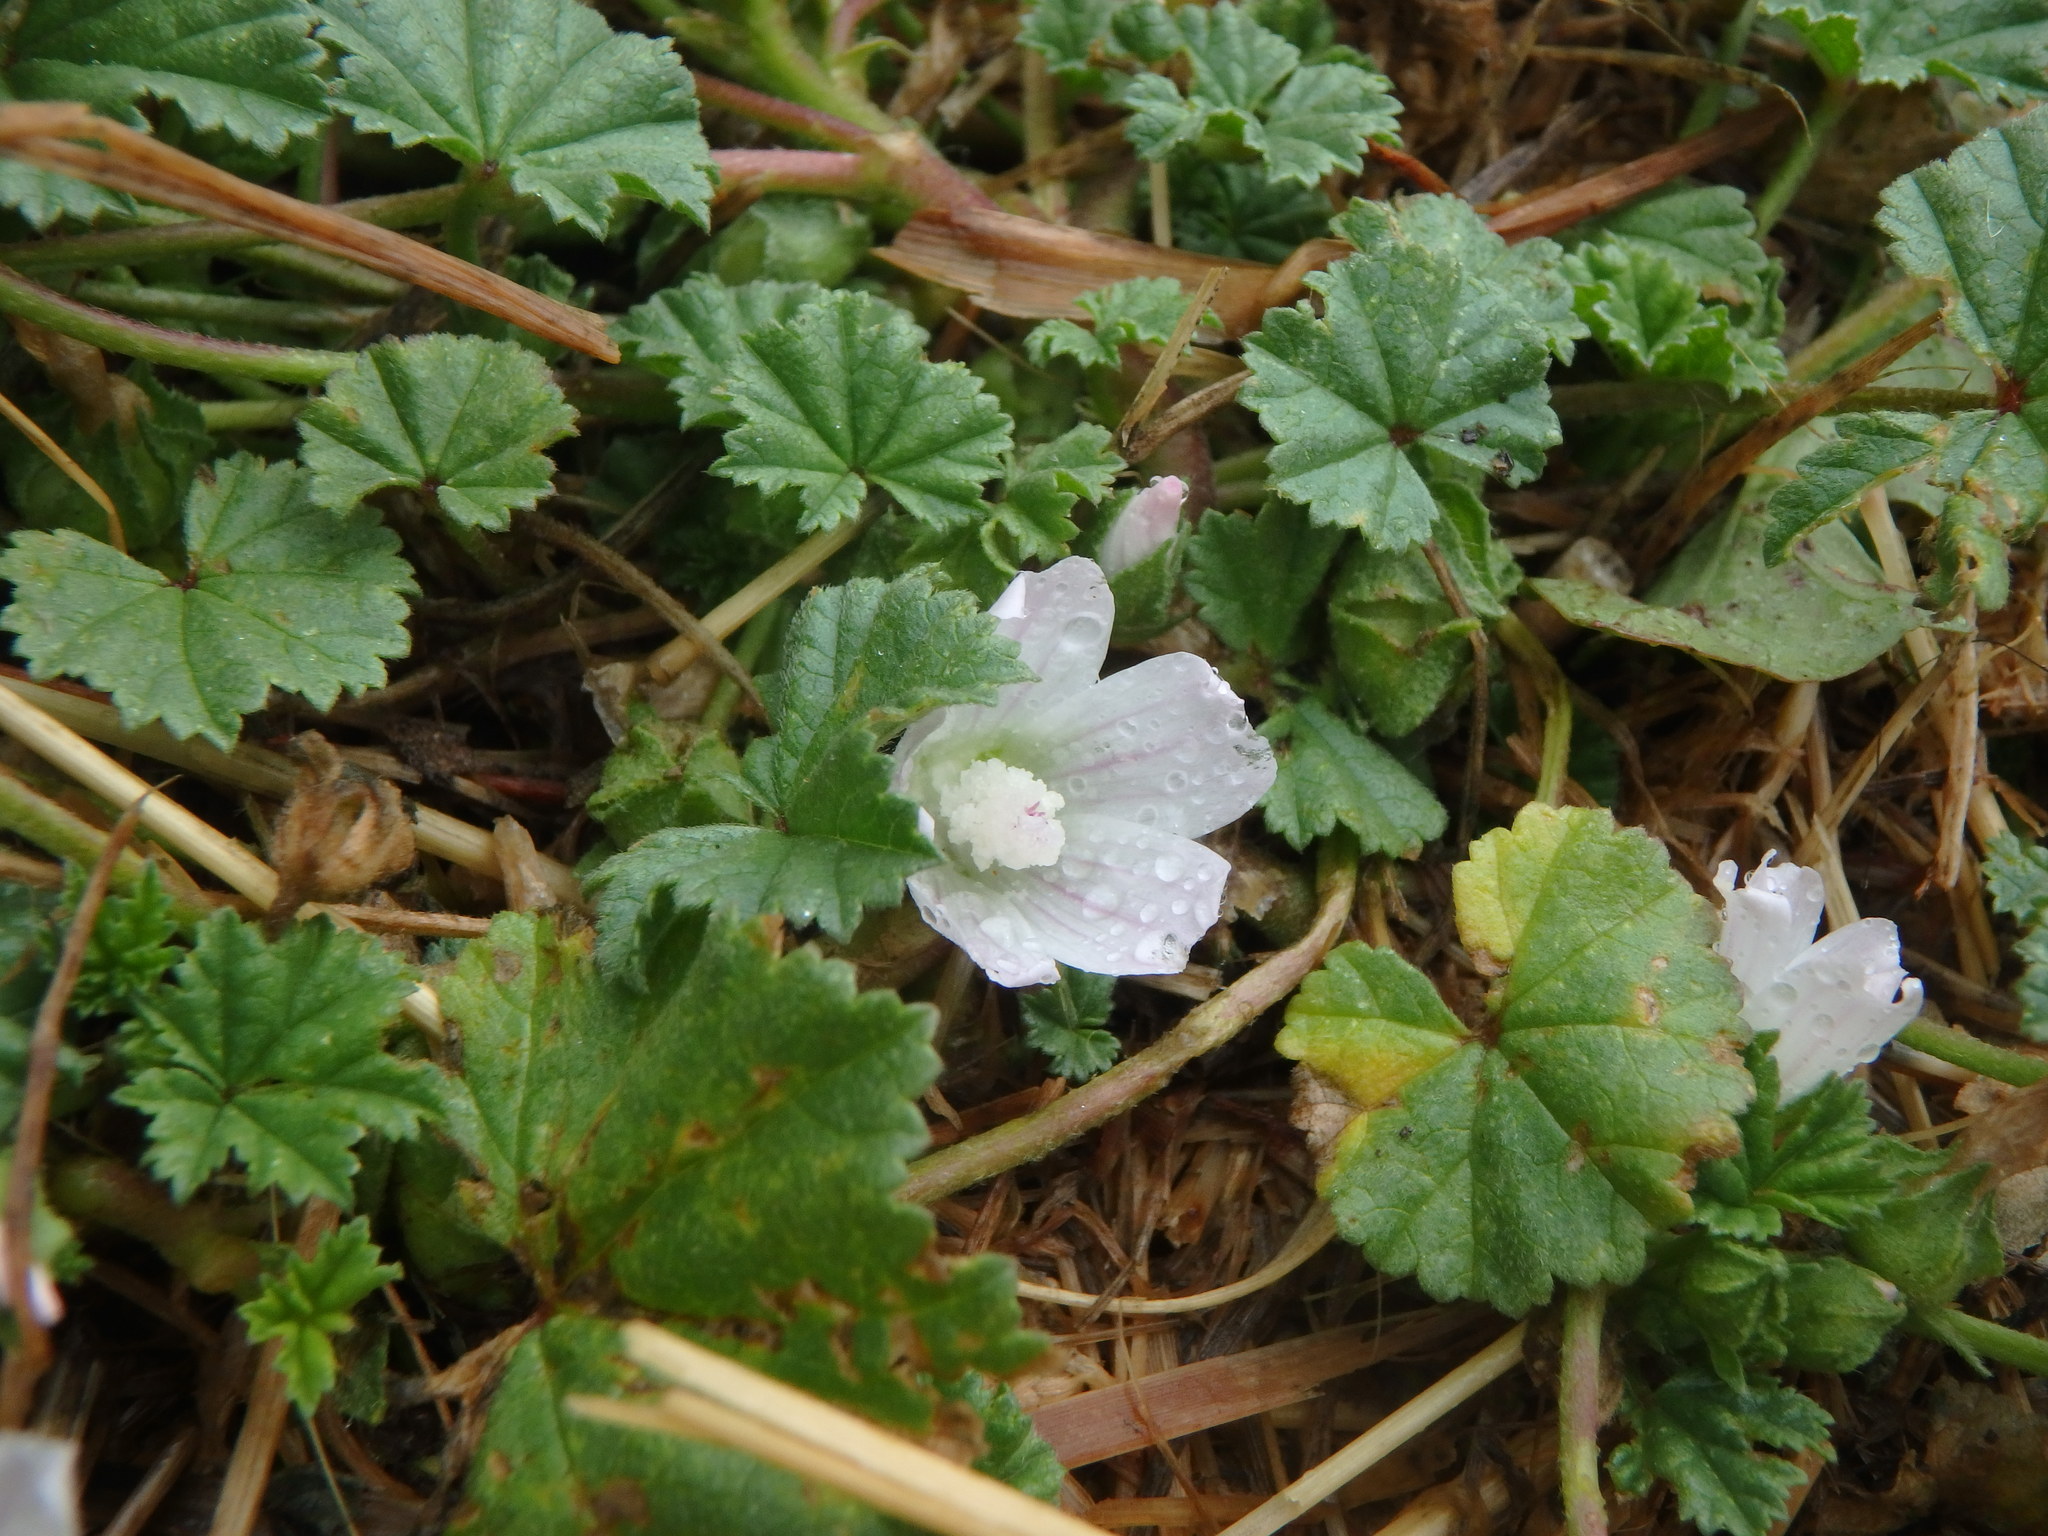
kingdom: Plantae
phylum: Tracheophyta
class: Magnoliopsida
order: Malvales
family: Malvaceae
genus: Malva
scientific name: Malva neglecta
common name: Common mallow
